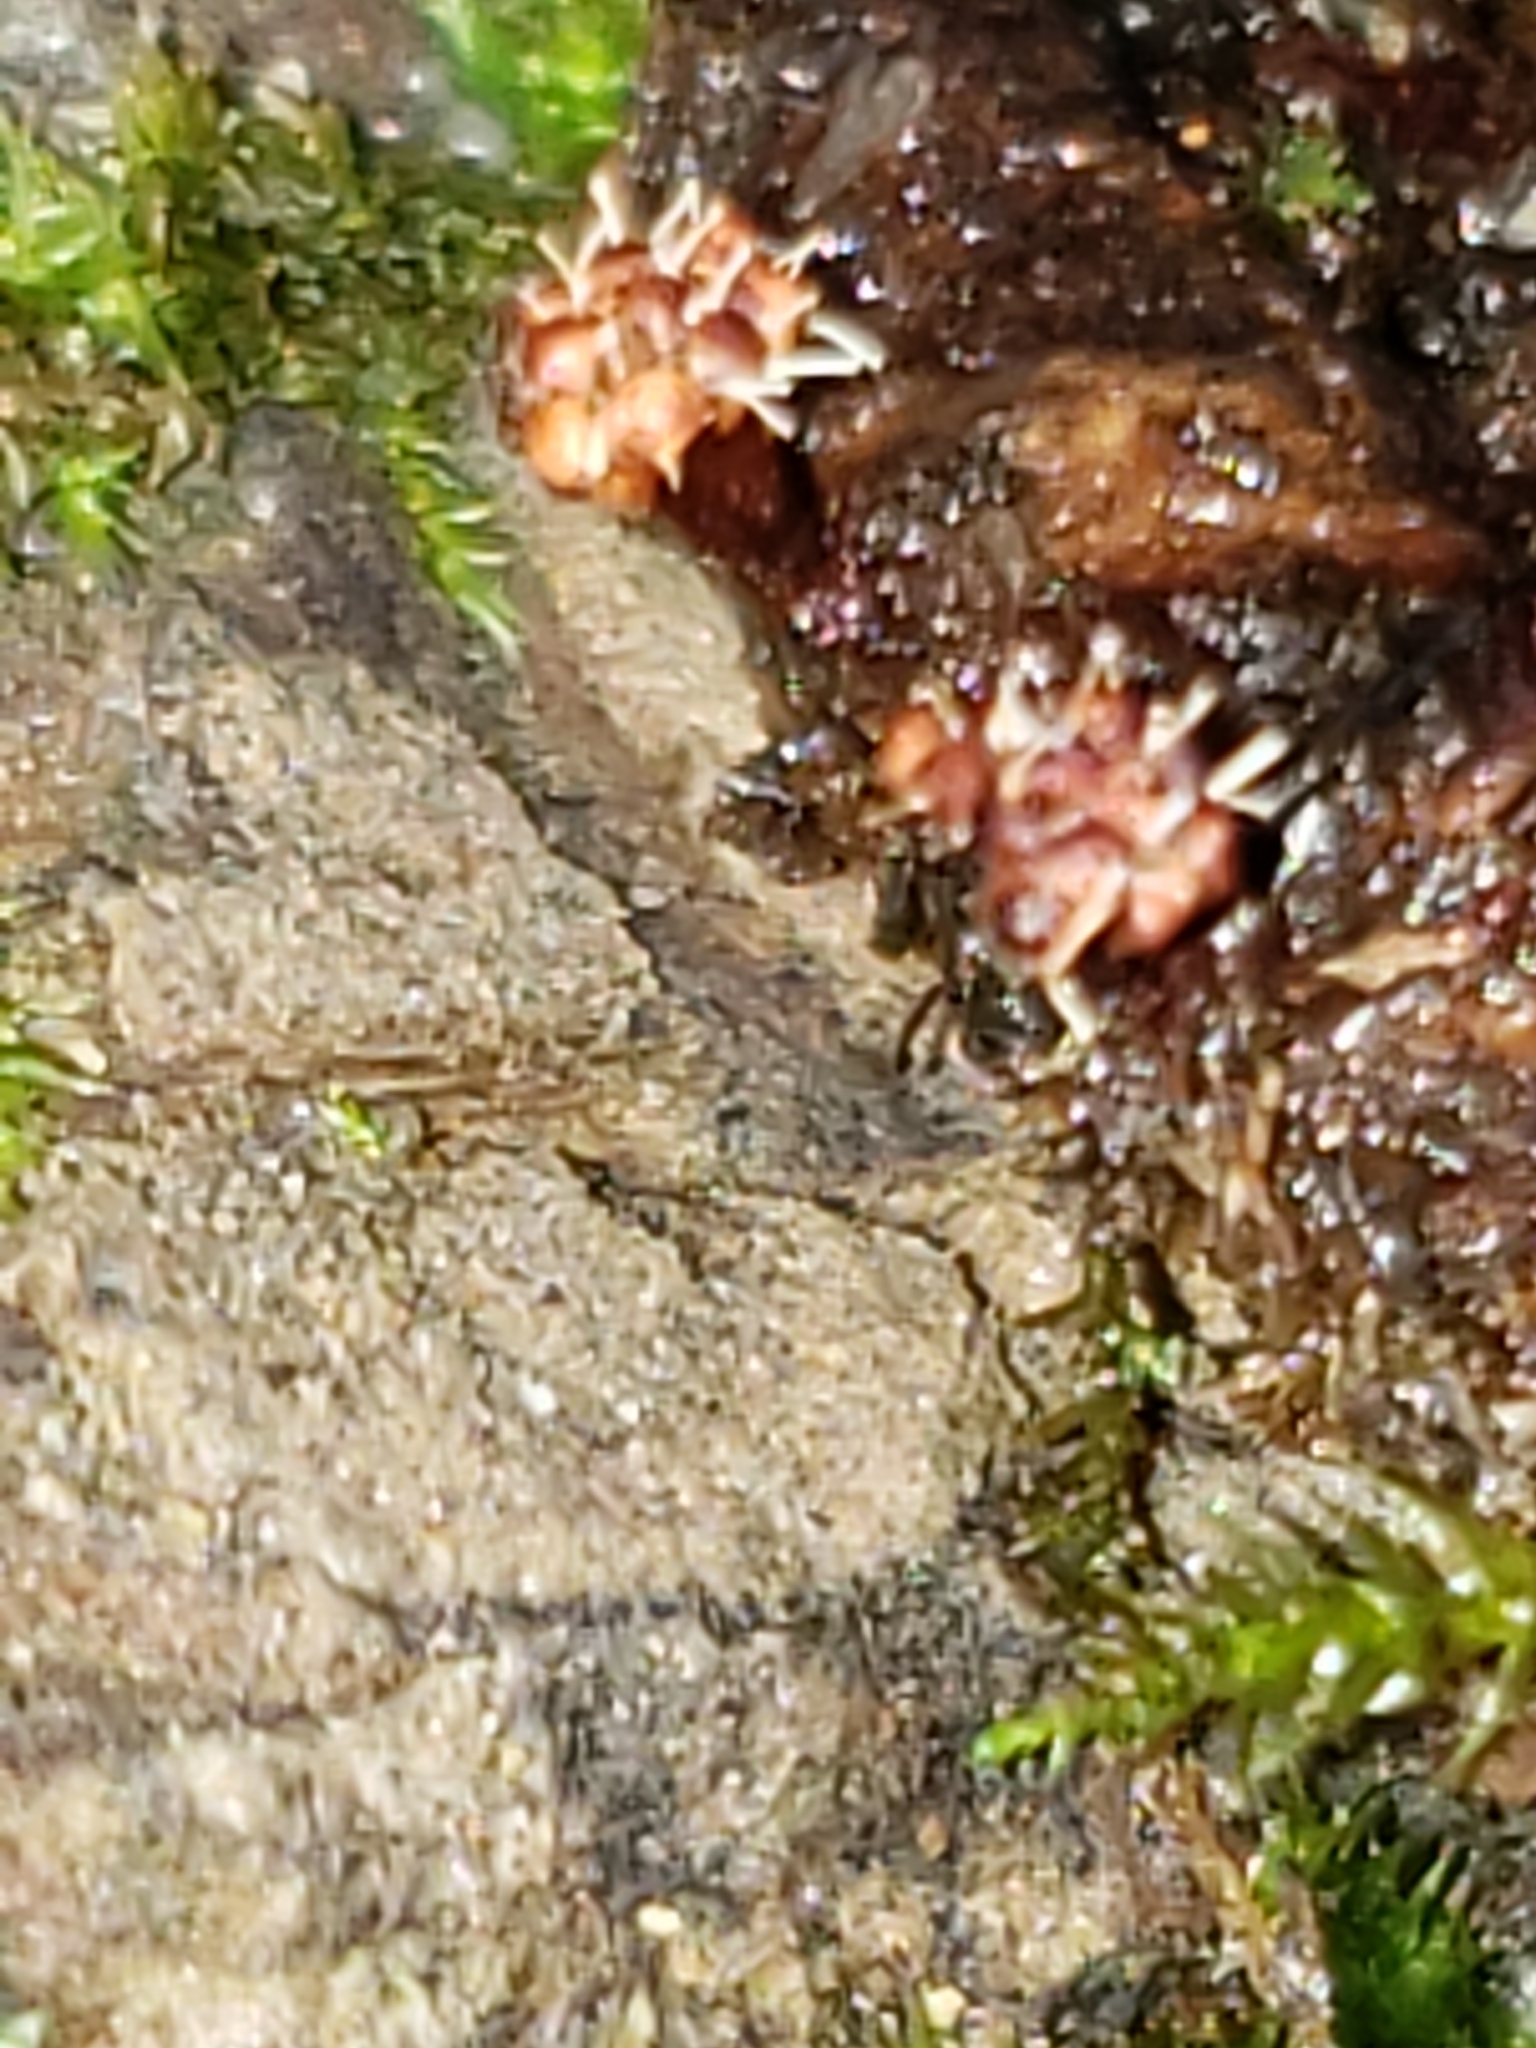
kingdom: Fungi
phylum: Ascomycota
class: Sordariomycetes
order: Hypocreales
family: Ophiocordycipitaceae
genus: Polycephalomyces
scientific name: Polycephalomyces tomentosus
